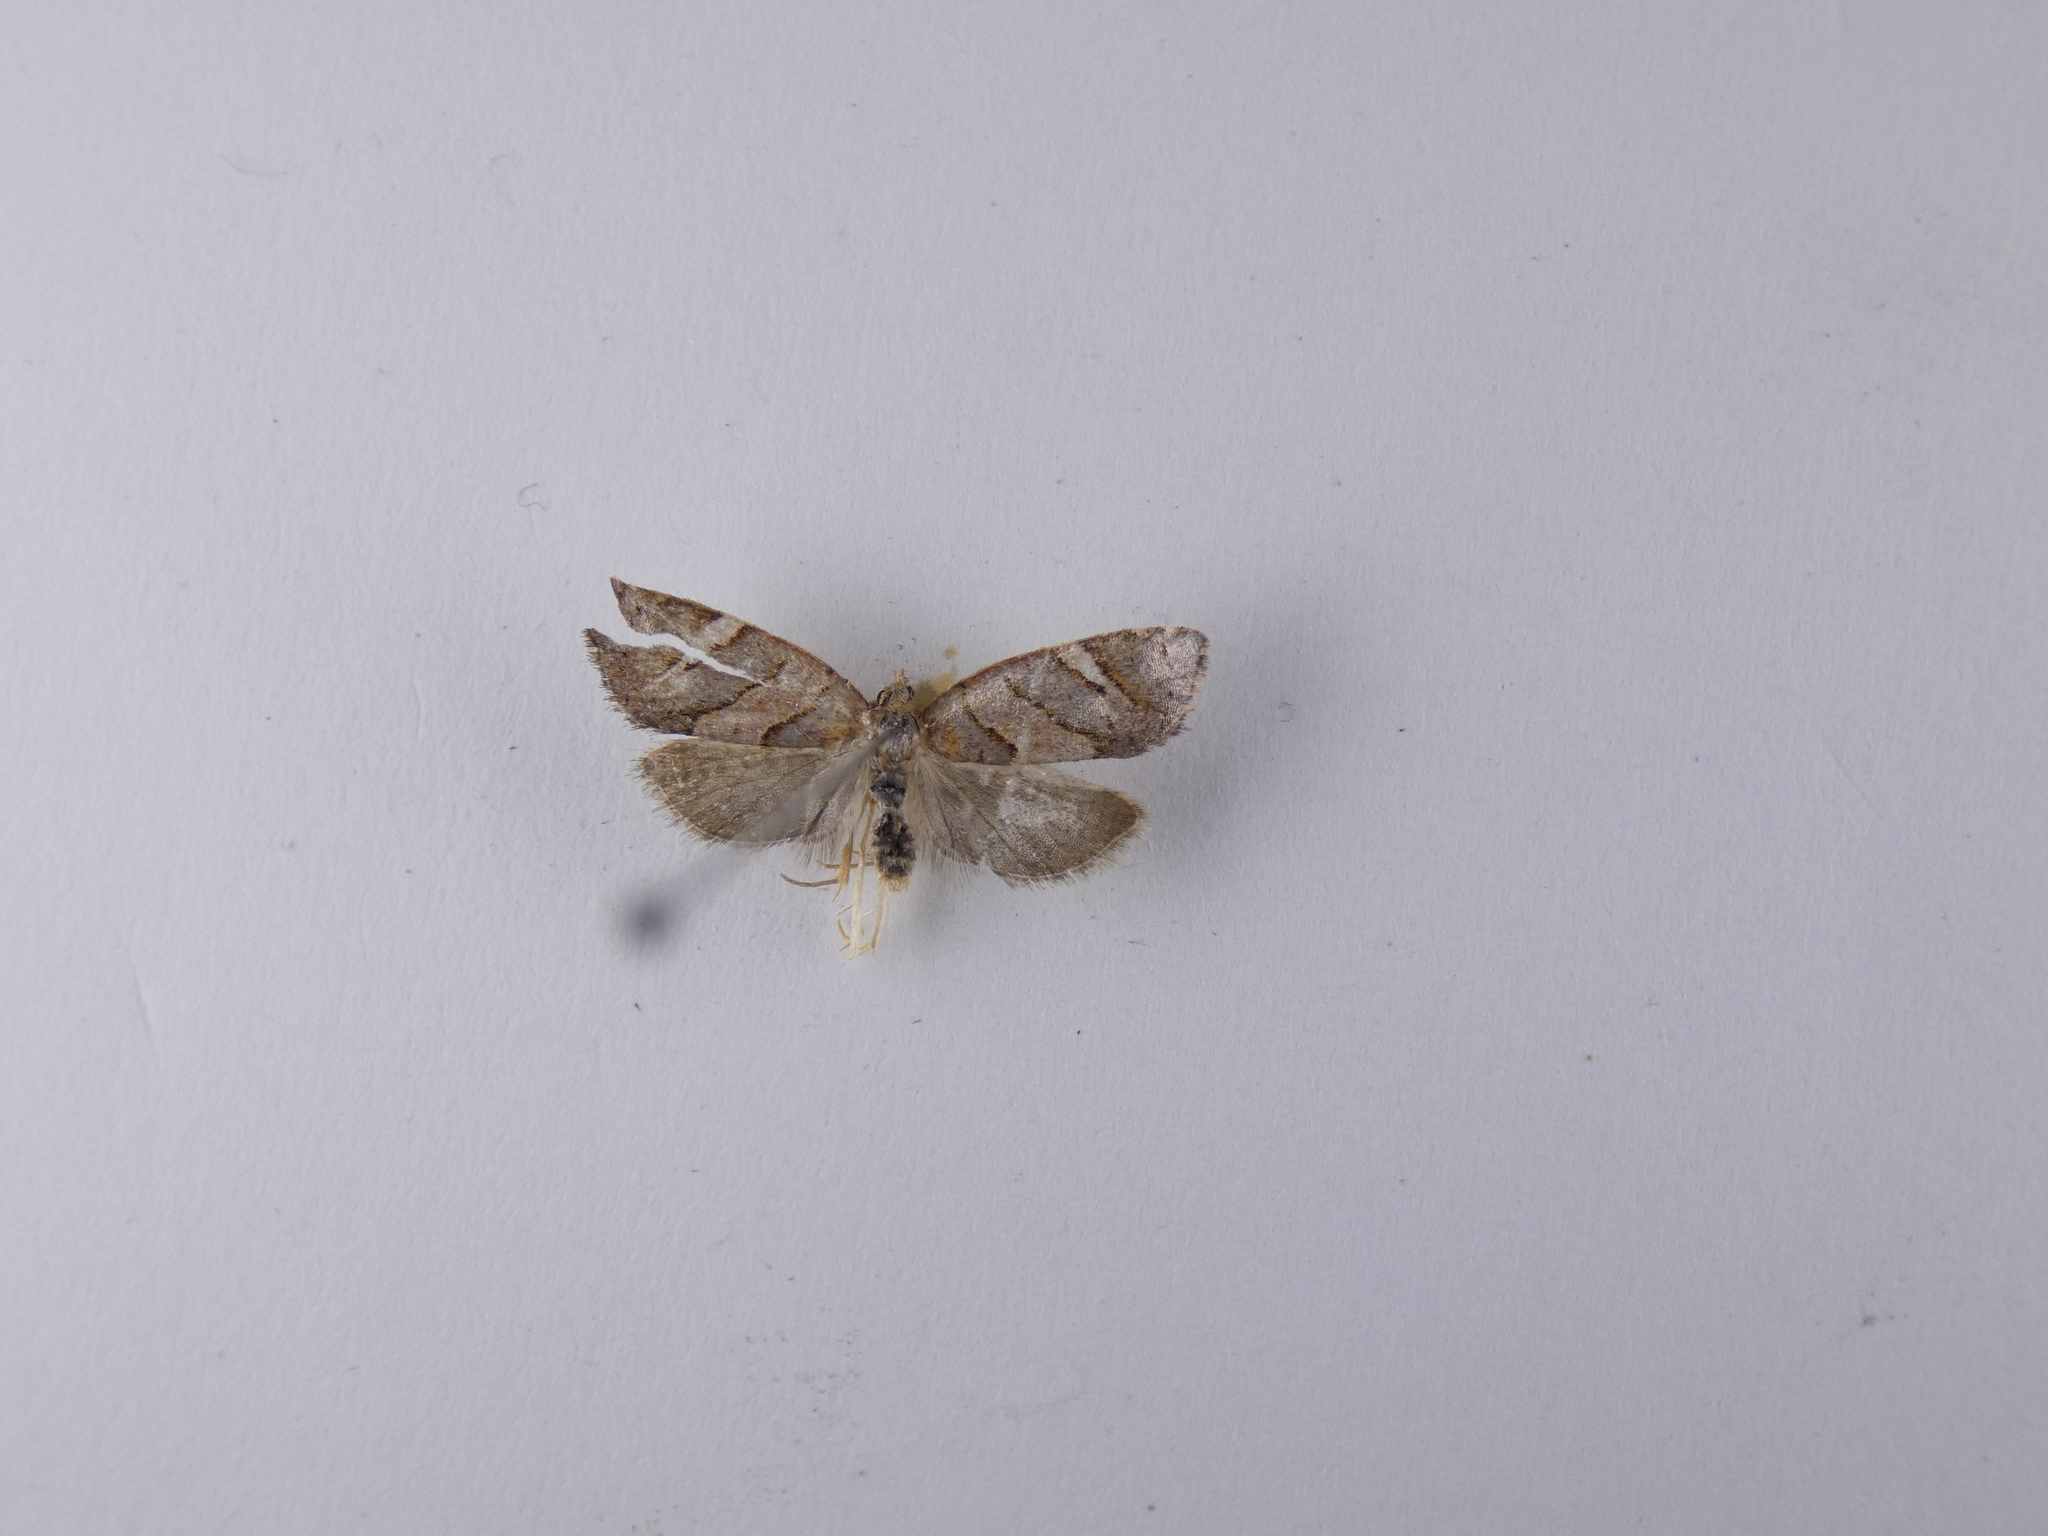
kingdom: Animalia
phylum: Arthropoda
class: Insecta
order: Lepidoptera
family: Tortricidae
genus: Ecclitica
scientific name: Ecclitica torogramma
